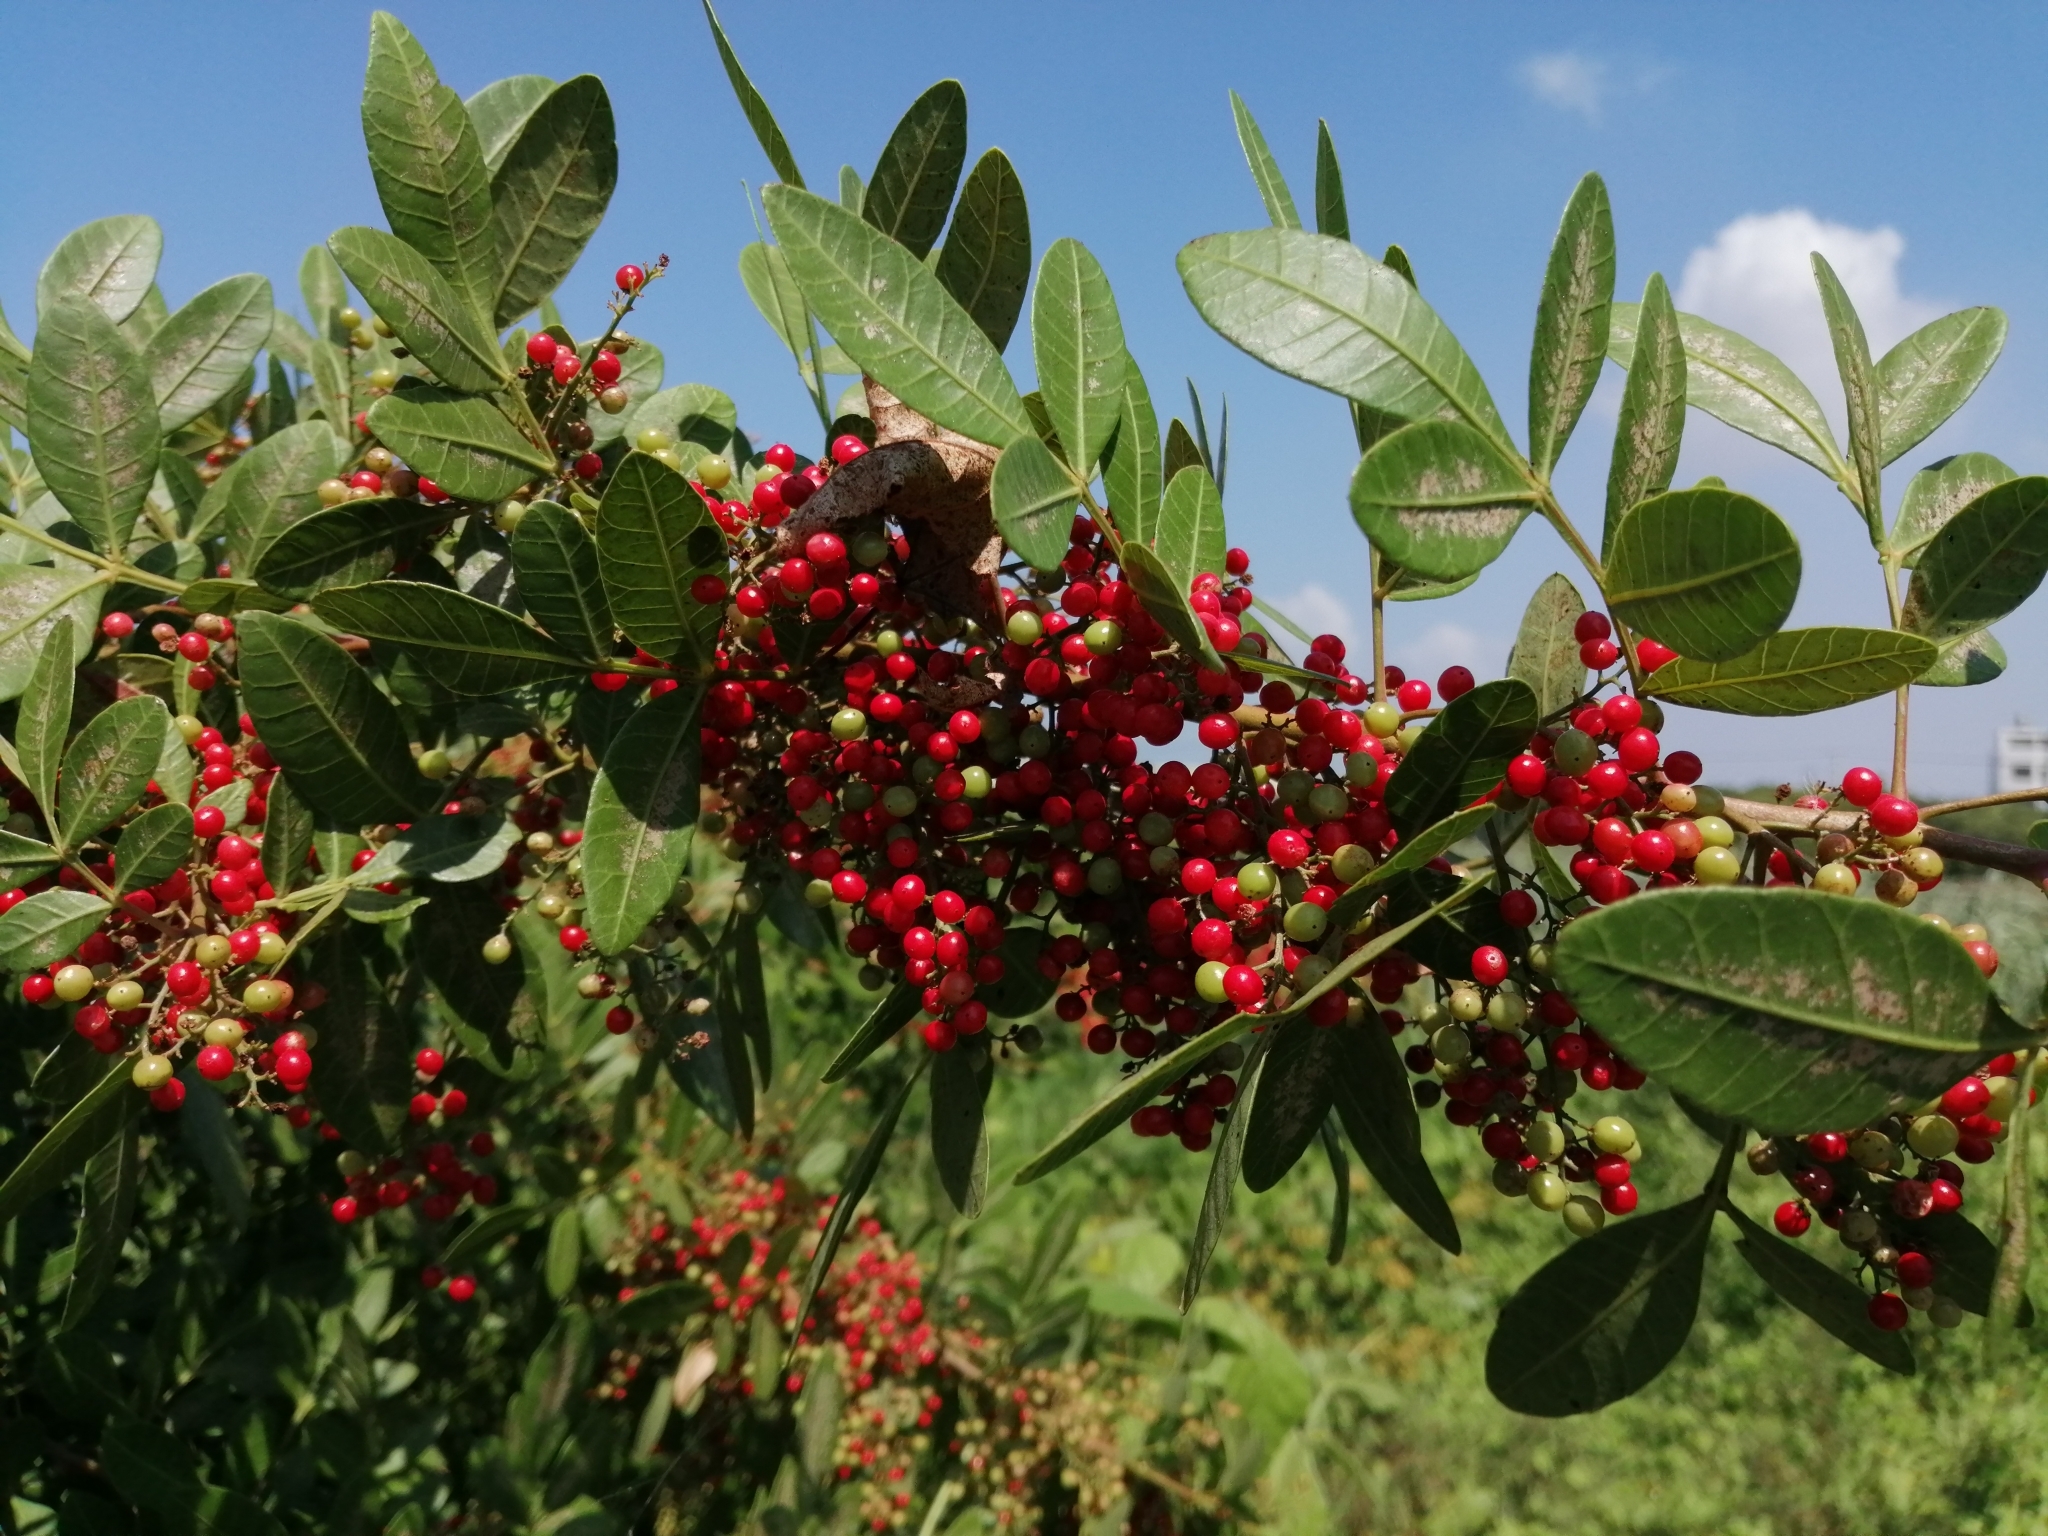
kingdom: Plantae
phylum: Tracheophyta
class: Magnoliopsida
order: Sapindales
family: Anacardiaceae
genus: Schinus
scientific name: Schinus terebinthifolia
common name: Brazilian peppertree
